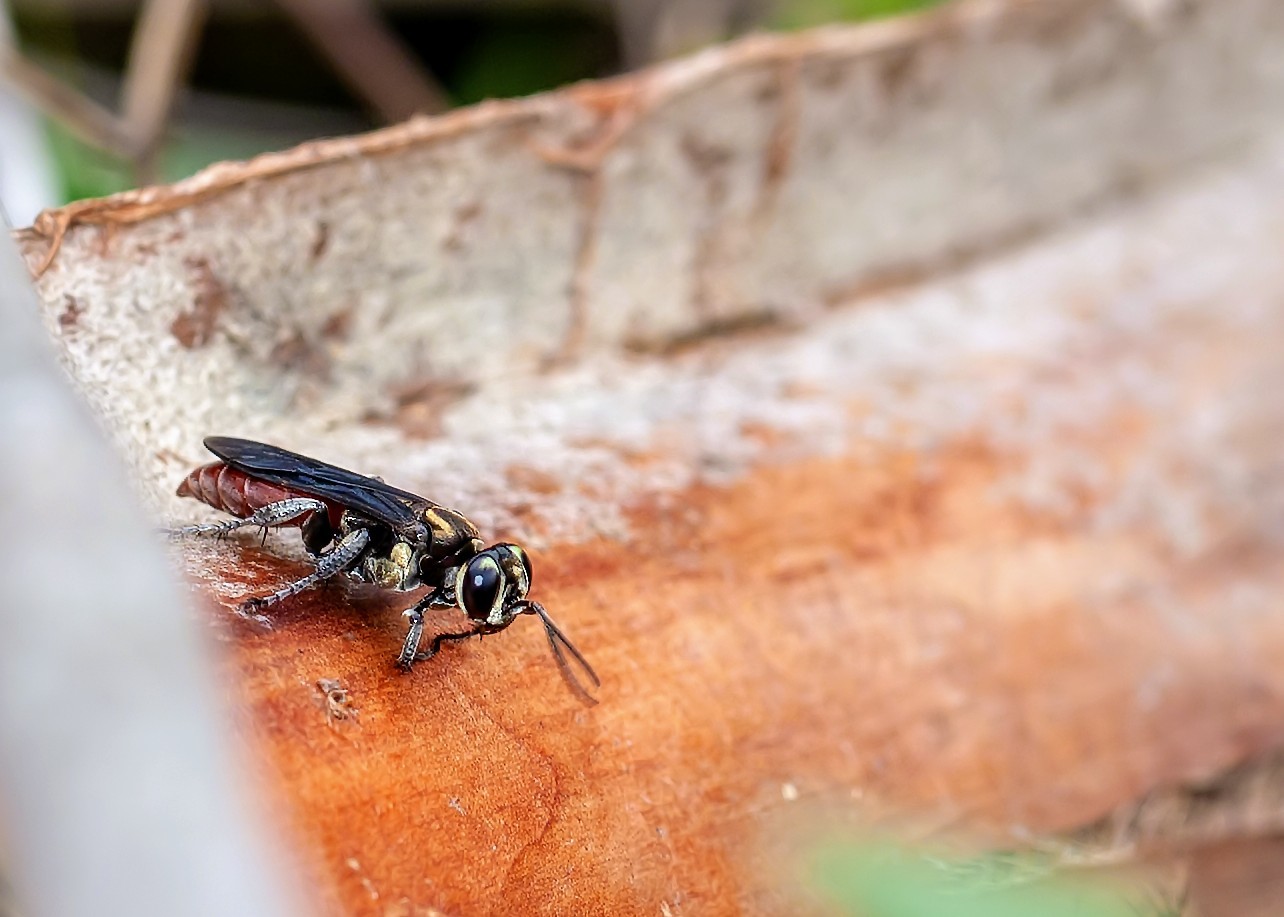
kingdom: Animalia
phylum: Arthropoda
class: Insecta
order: Hymenoptera
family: Crabronidae
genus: Larra
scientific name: Larra bicolor
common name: Wasp
